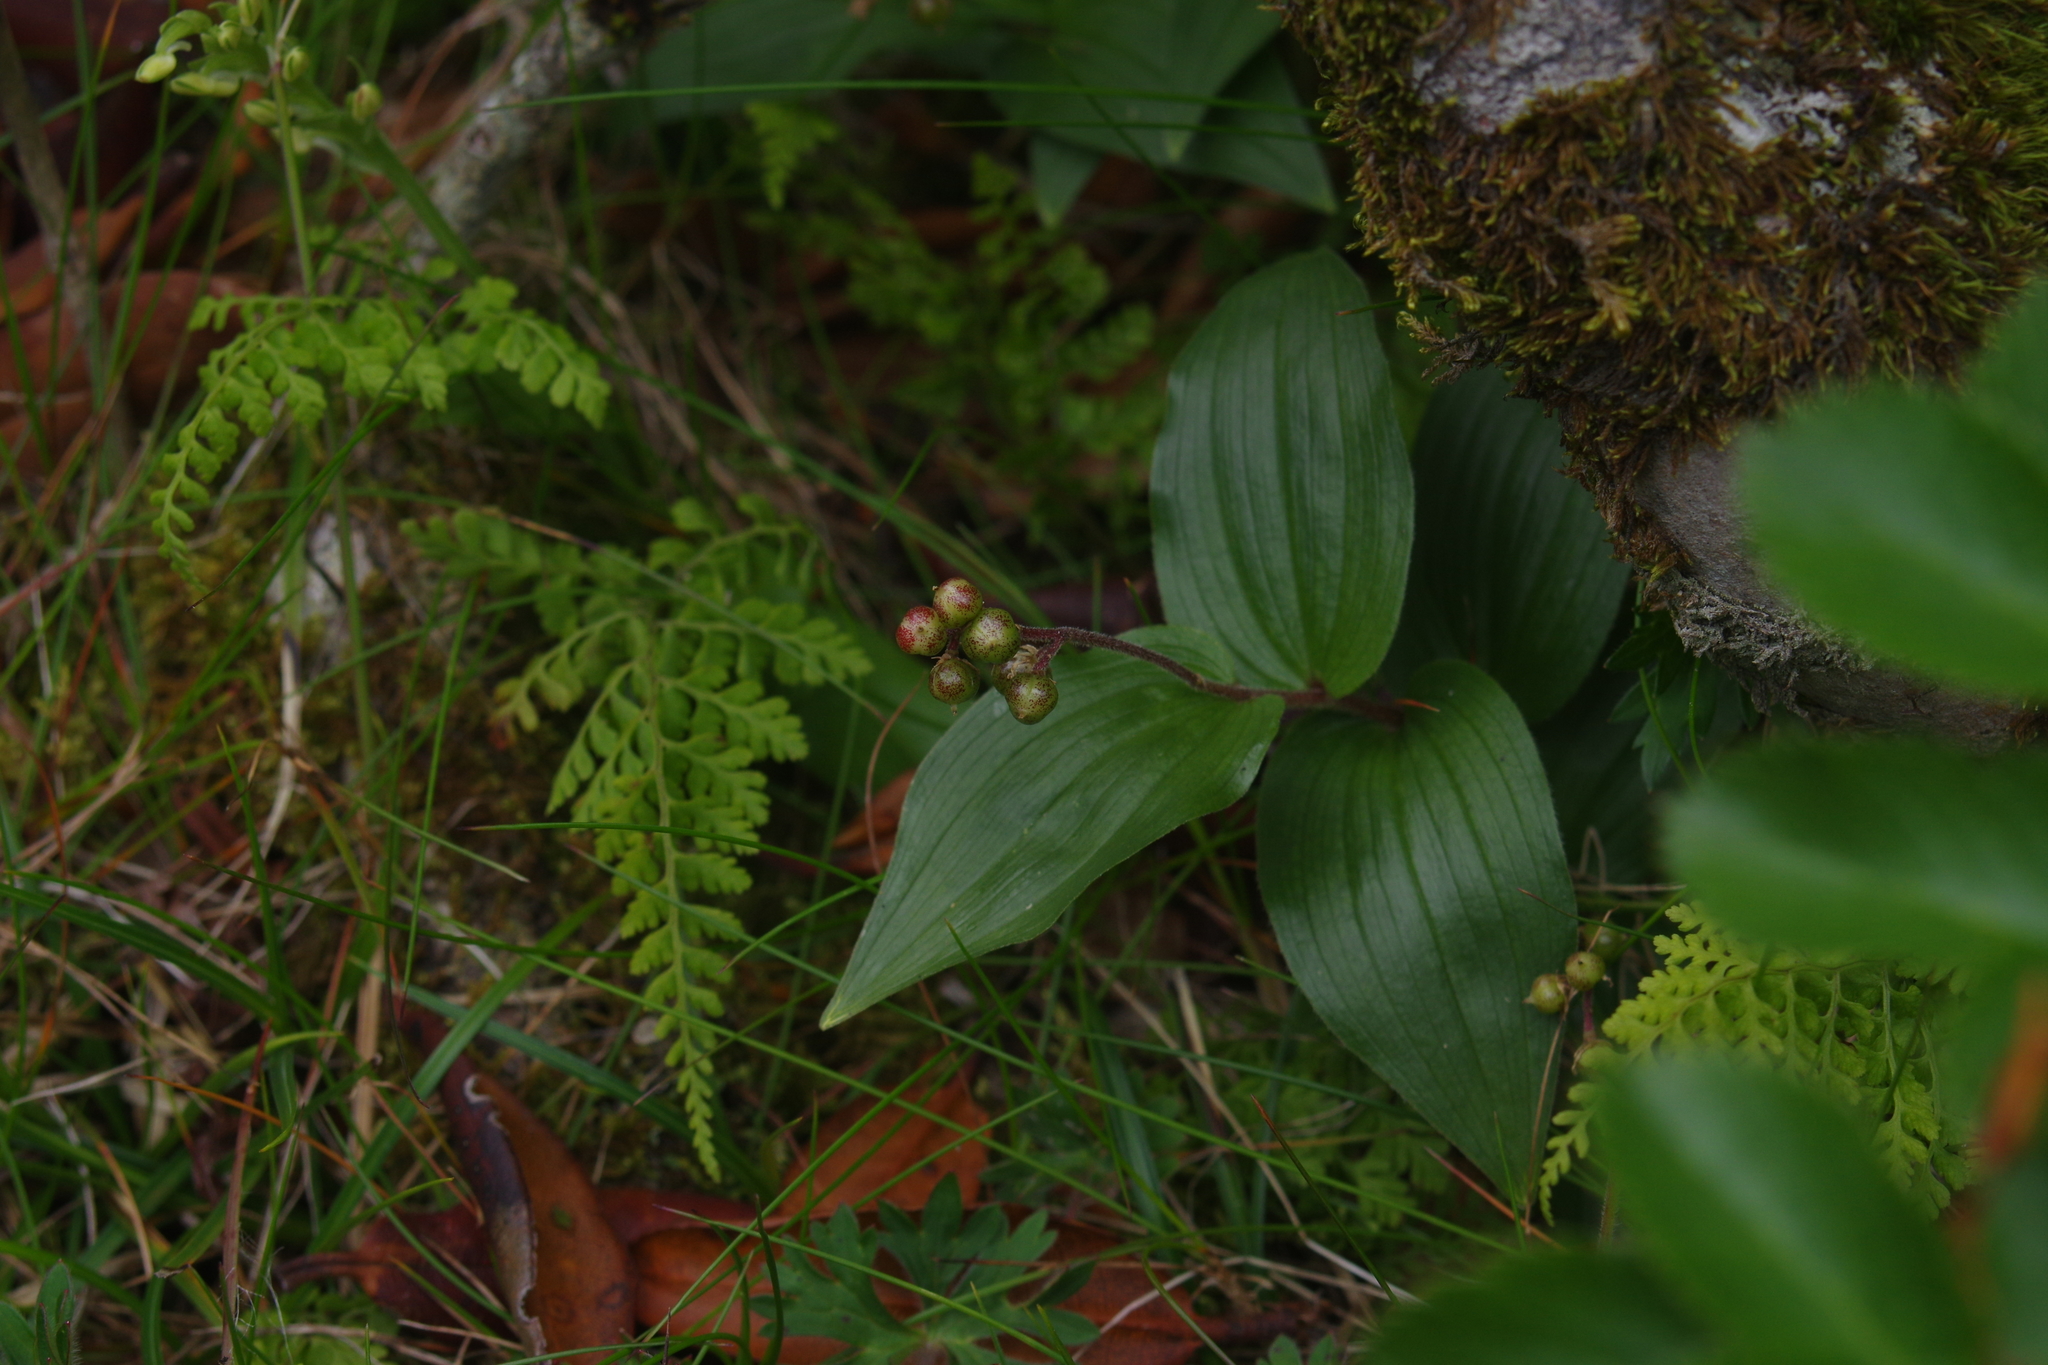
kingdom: Plantae
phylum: Tracheophyta
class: Liliopsida
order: Asparagales
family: Asparagaceae
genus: Maianthemum
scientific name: Maianthemum formosanum
